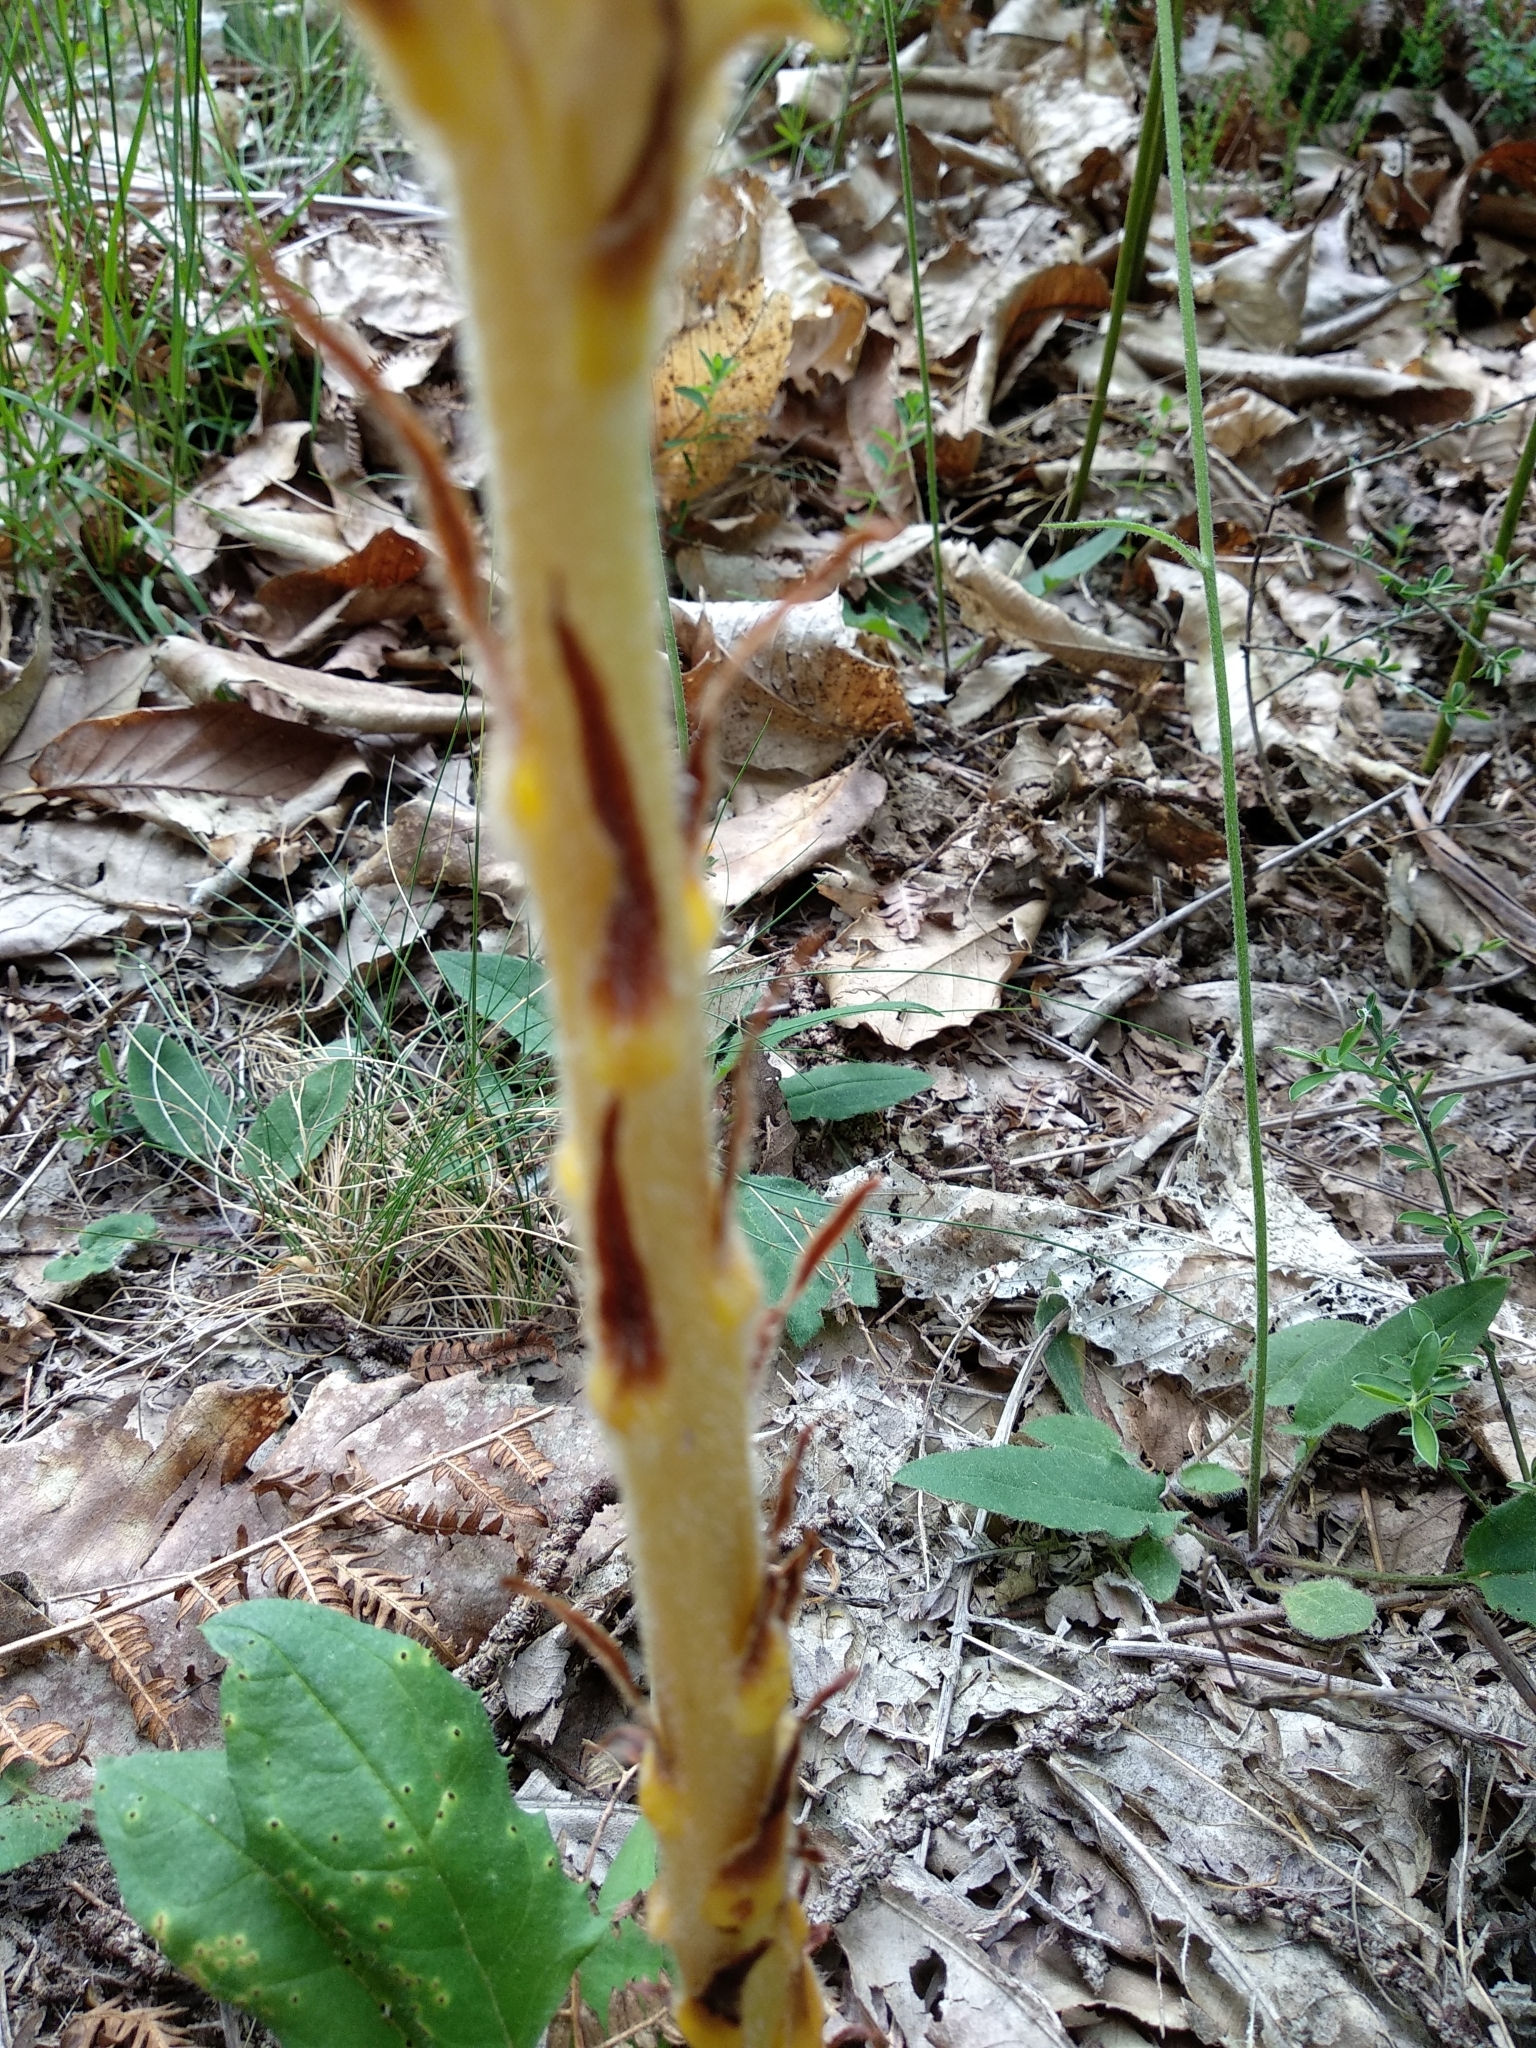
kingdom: Plantae
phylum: Tracheophyta
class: Magnoliopsida
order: Lamiales
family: Orobanchaceae
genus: Orobanche
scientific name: Orobanche rapum-genistae
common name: Greater broomrape
